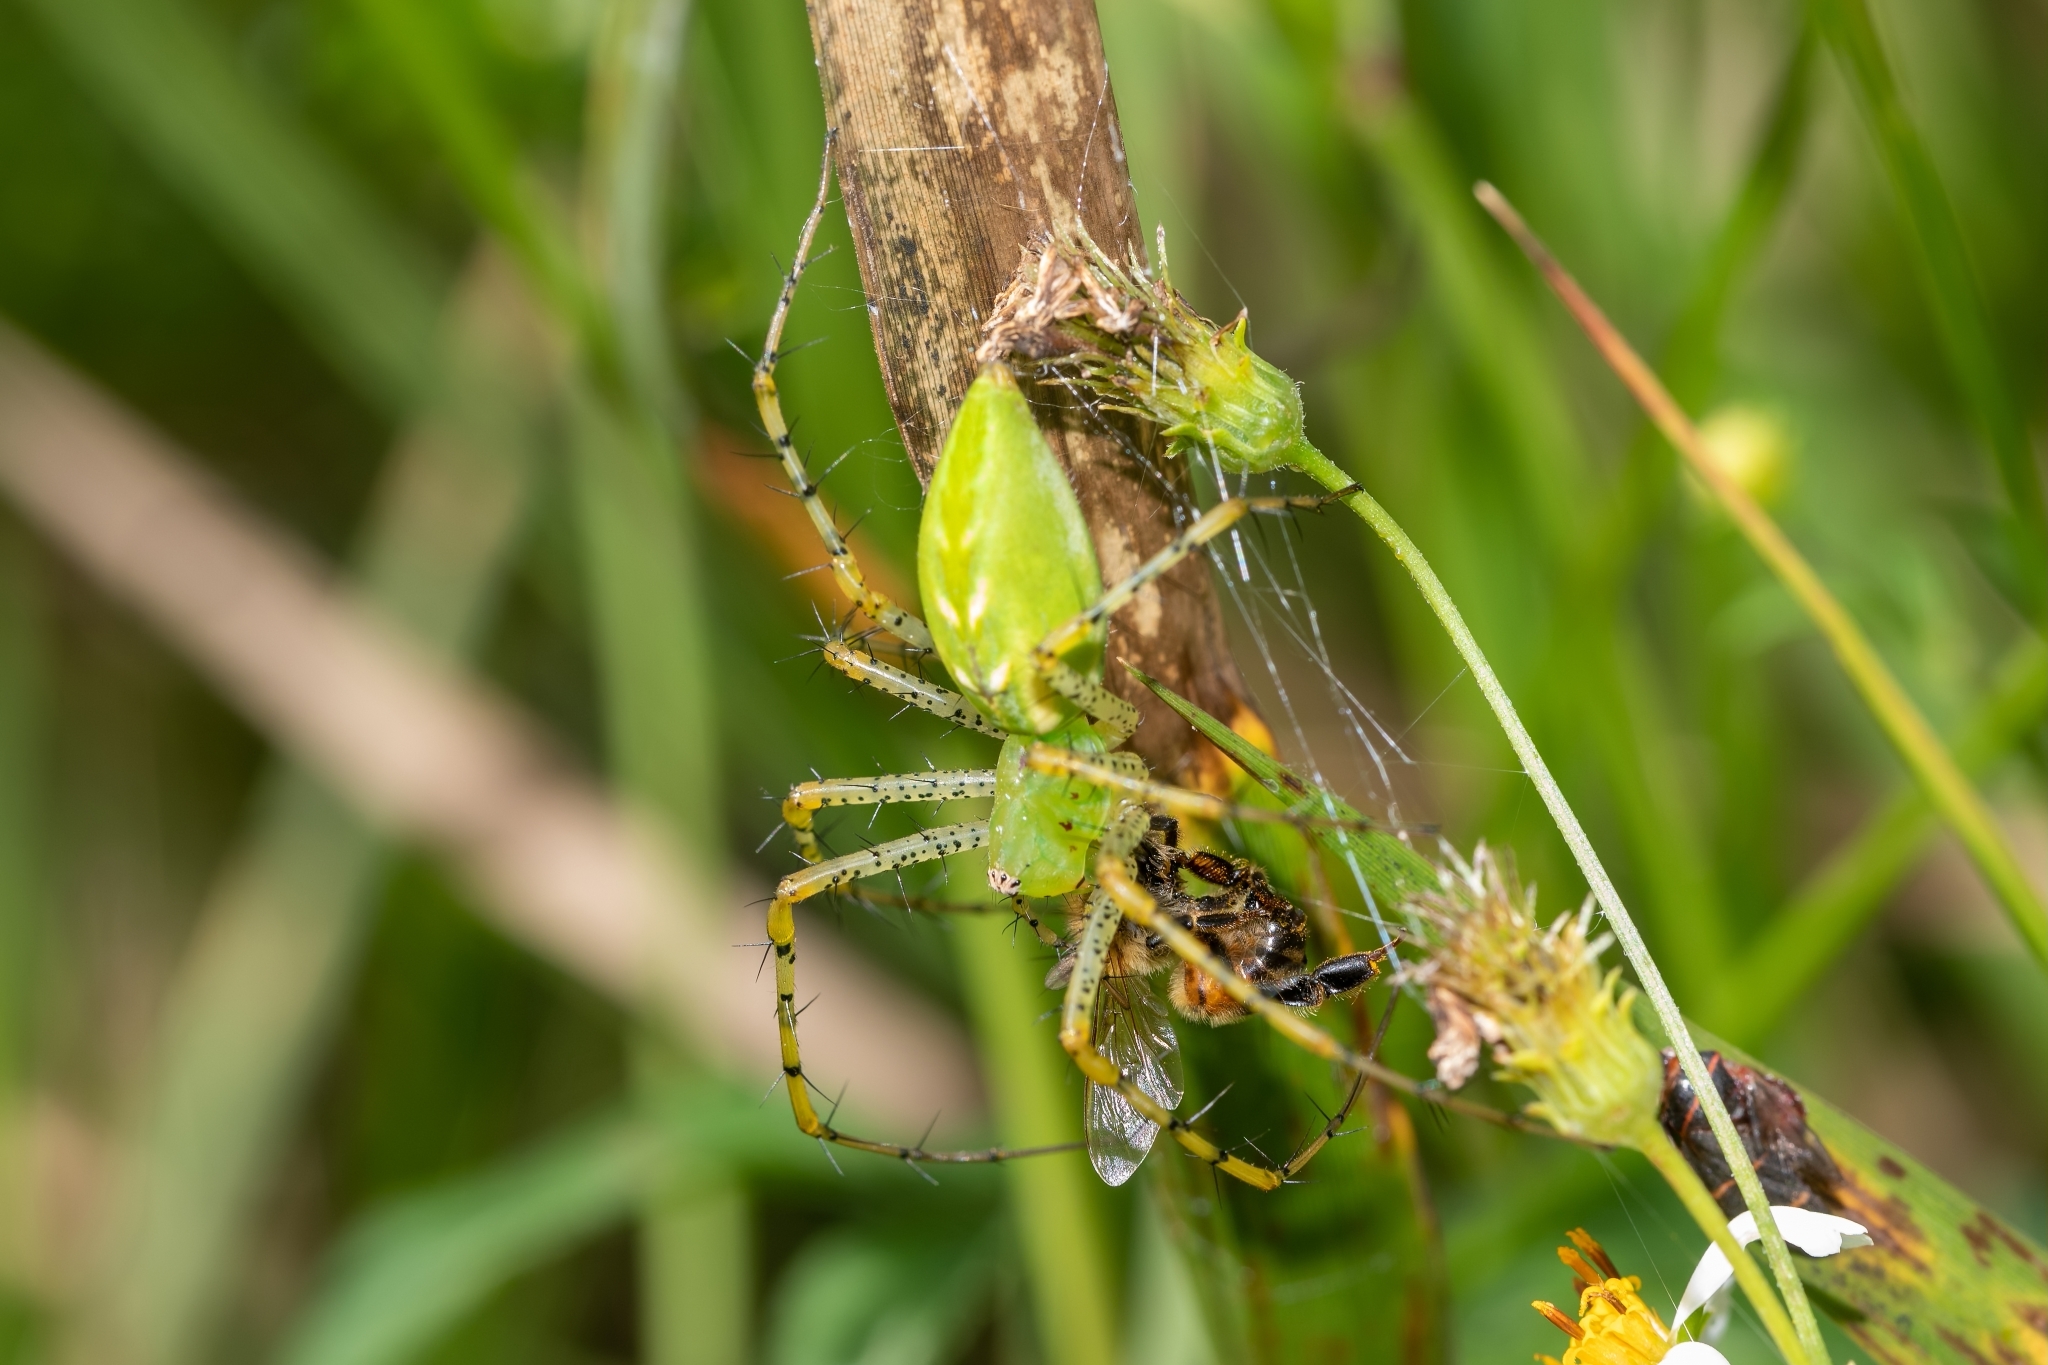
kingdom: Animalia
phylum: Arthropoda
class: Arachnida
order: Araneae
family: Oxyopidae
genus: Peucetia
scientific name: Peucetia viridans
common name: Lynx spiders
